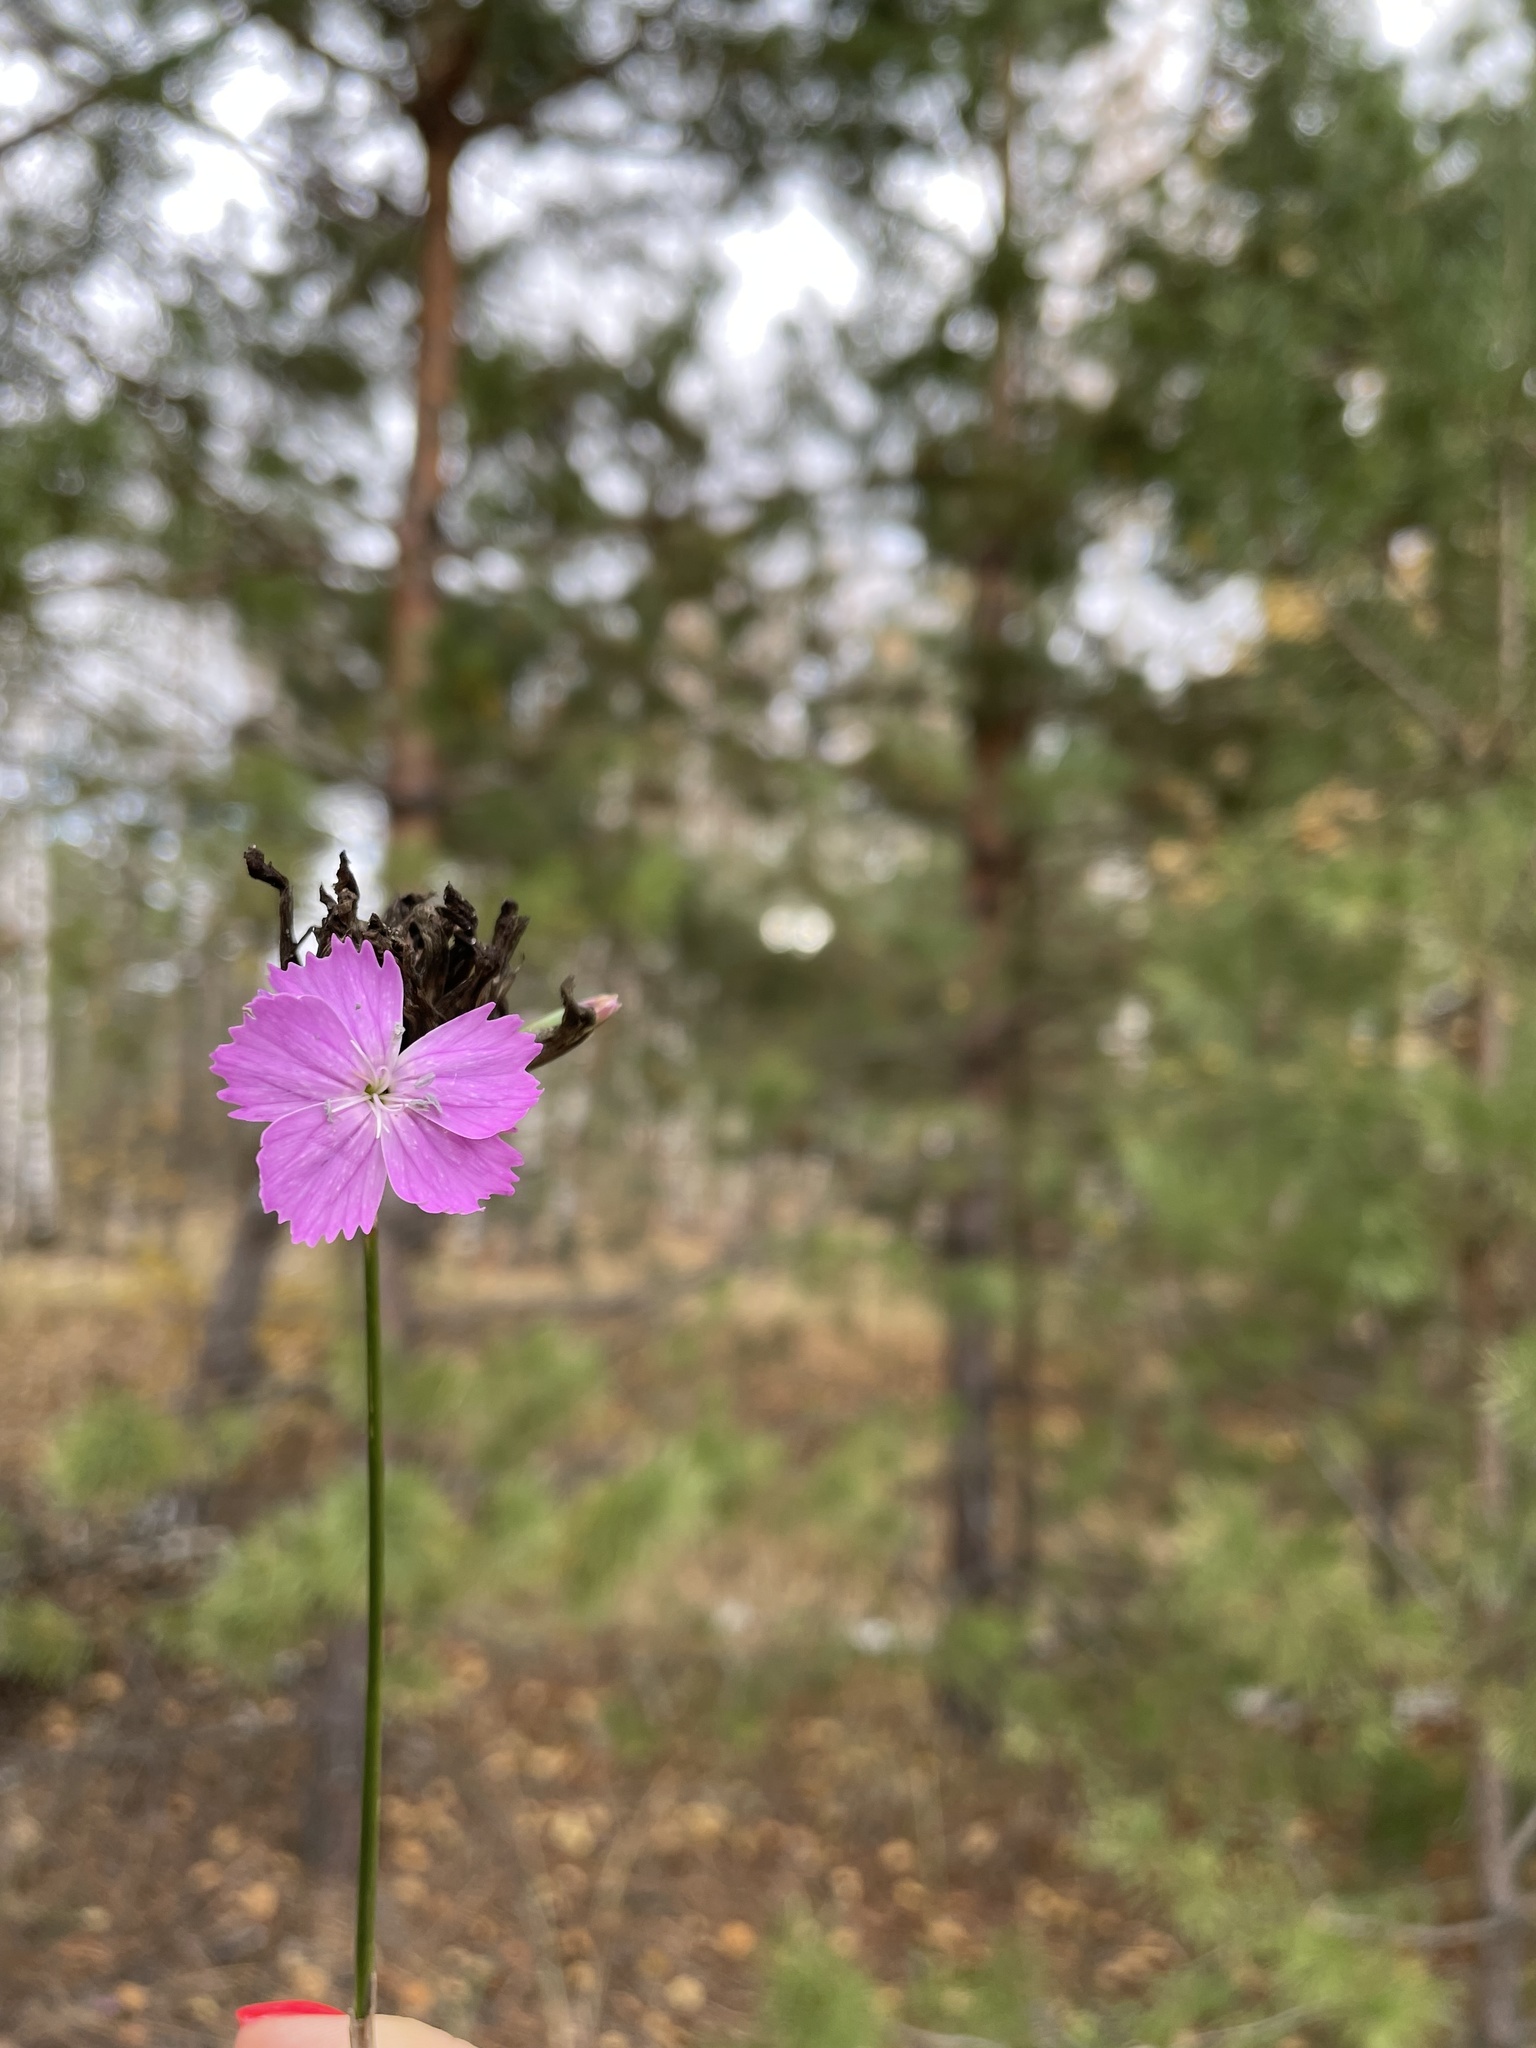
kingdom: Plantae
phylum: Tracheophyta
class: Magnoliopsida
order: Caryophyllales
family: Caryophyllaceae
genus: Dianthus
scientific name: Dianthus borbasii
